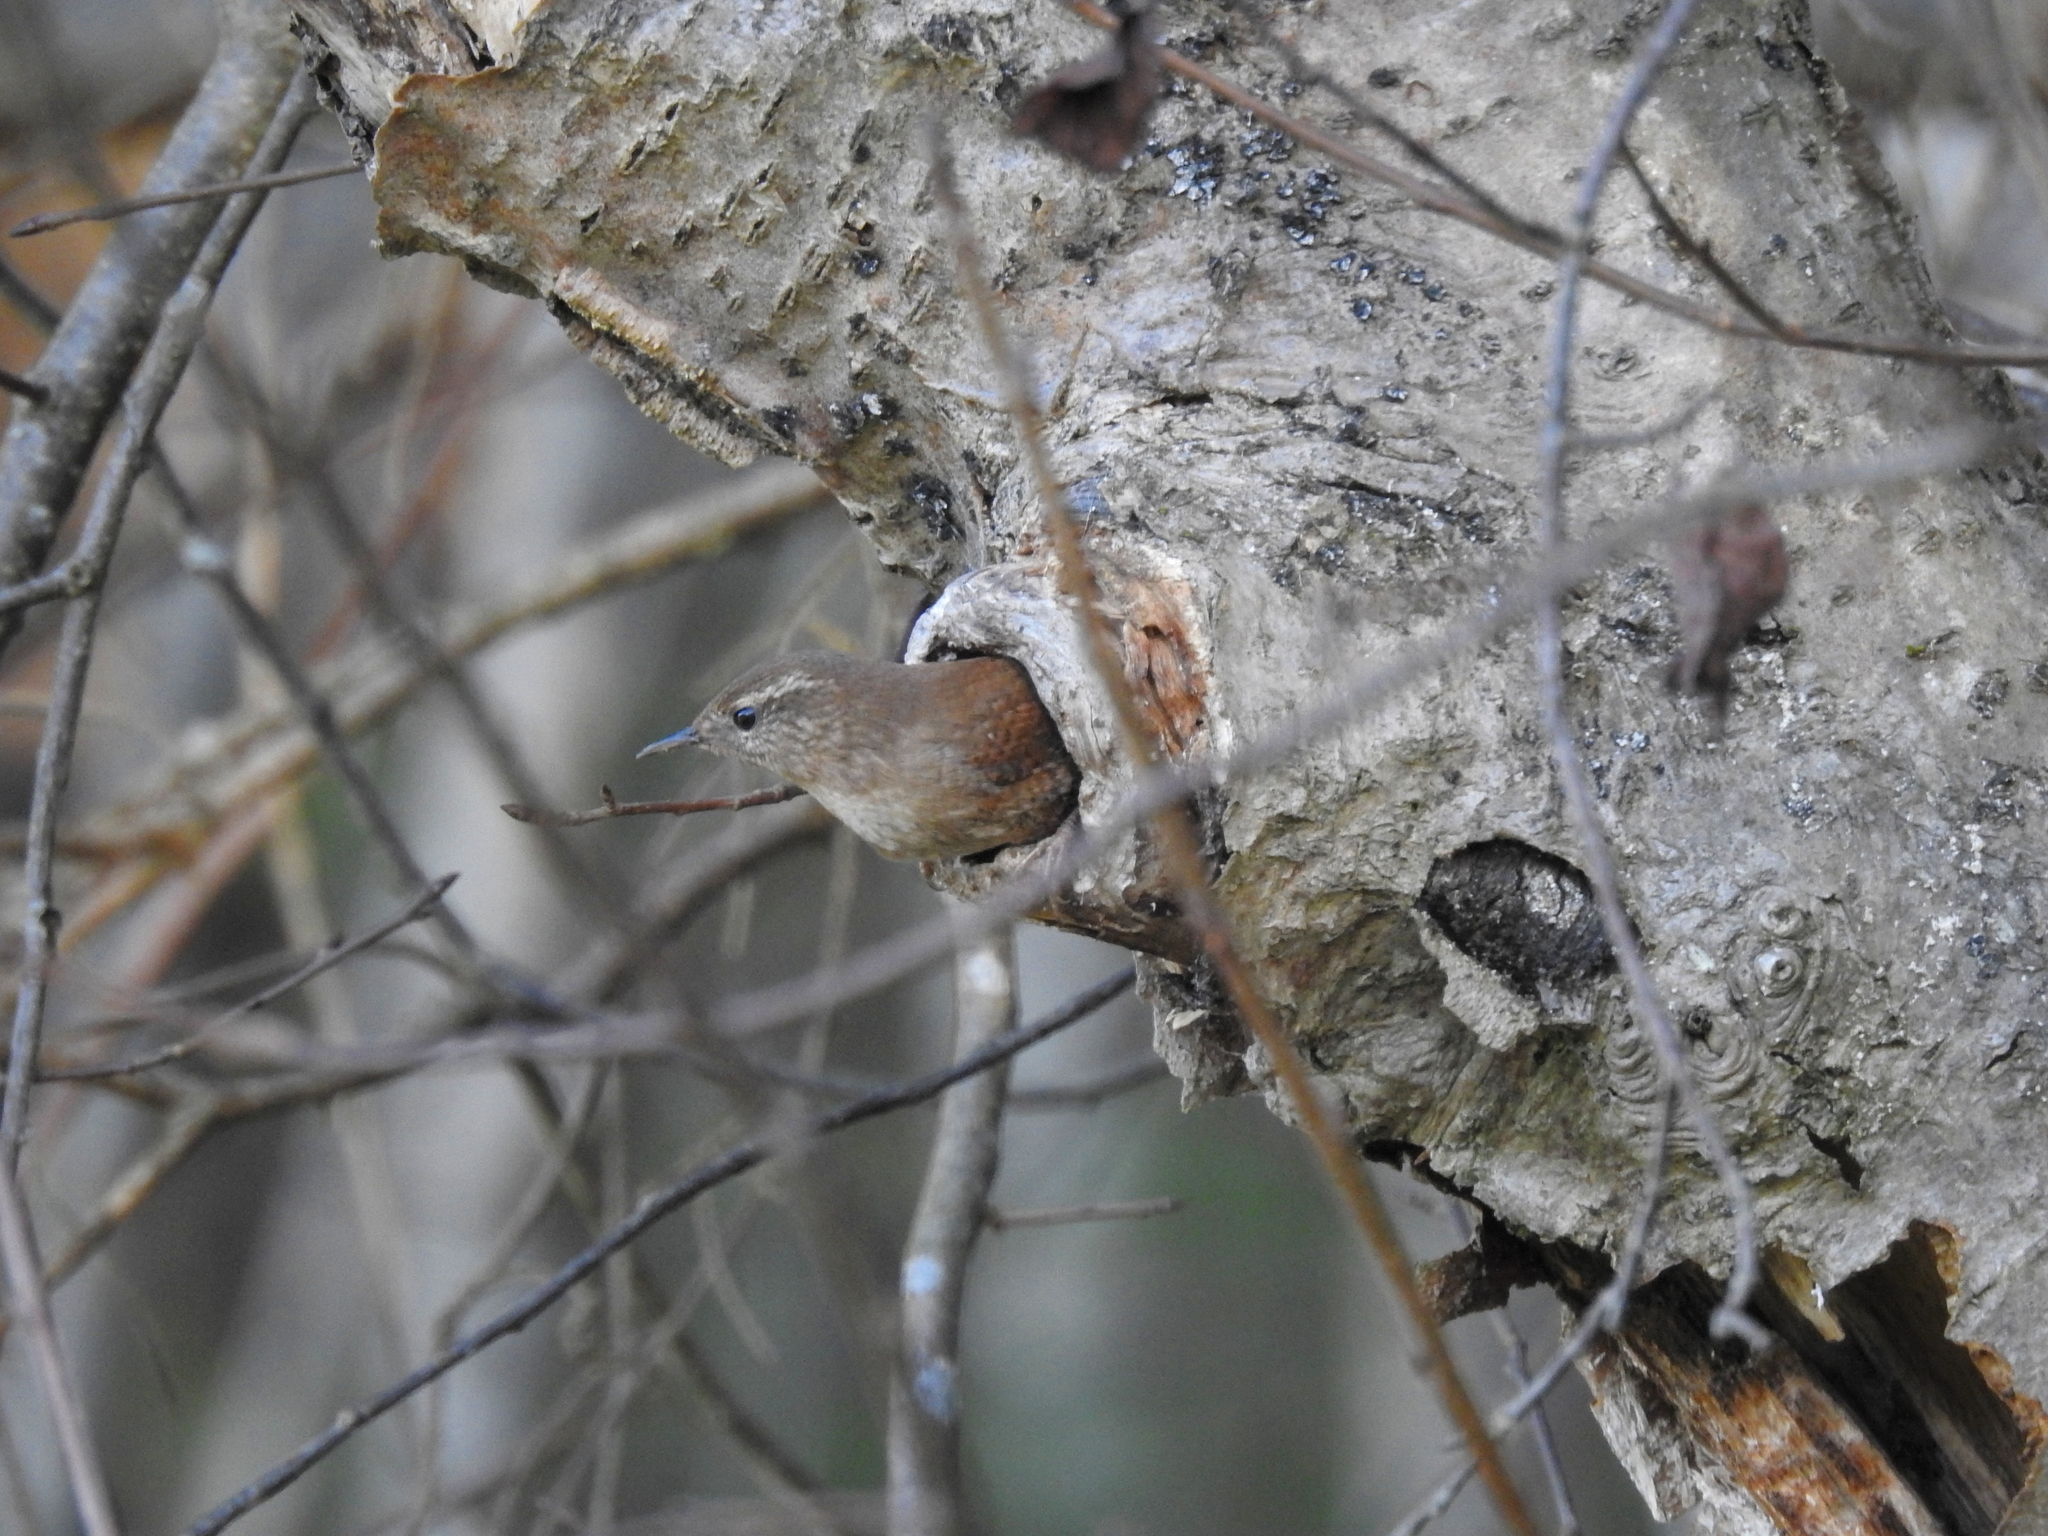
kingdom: Animalia
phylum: Chordata
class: Aves
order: Passeriformes
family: Troglodytidae
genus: Troglodytes
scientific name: Troglodytes troglodytes
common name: Eurasian wren
